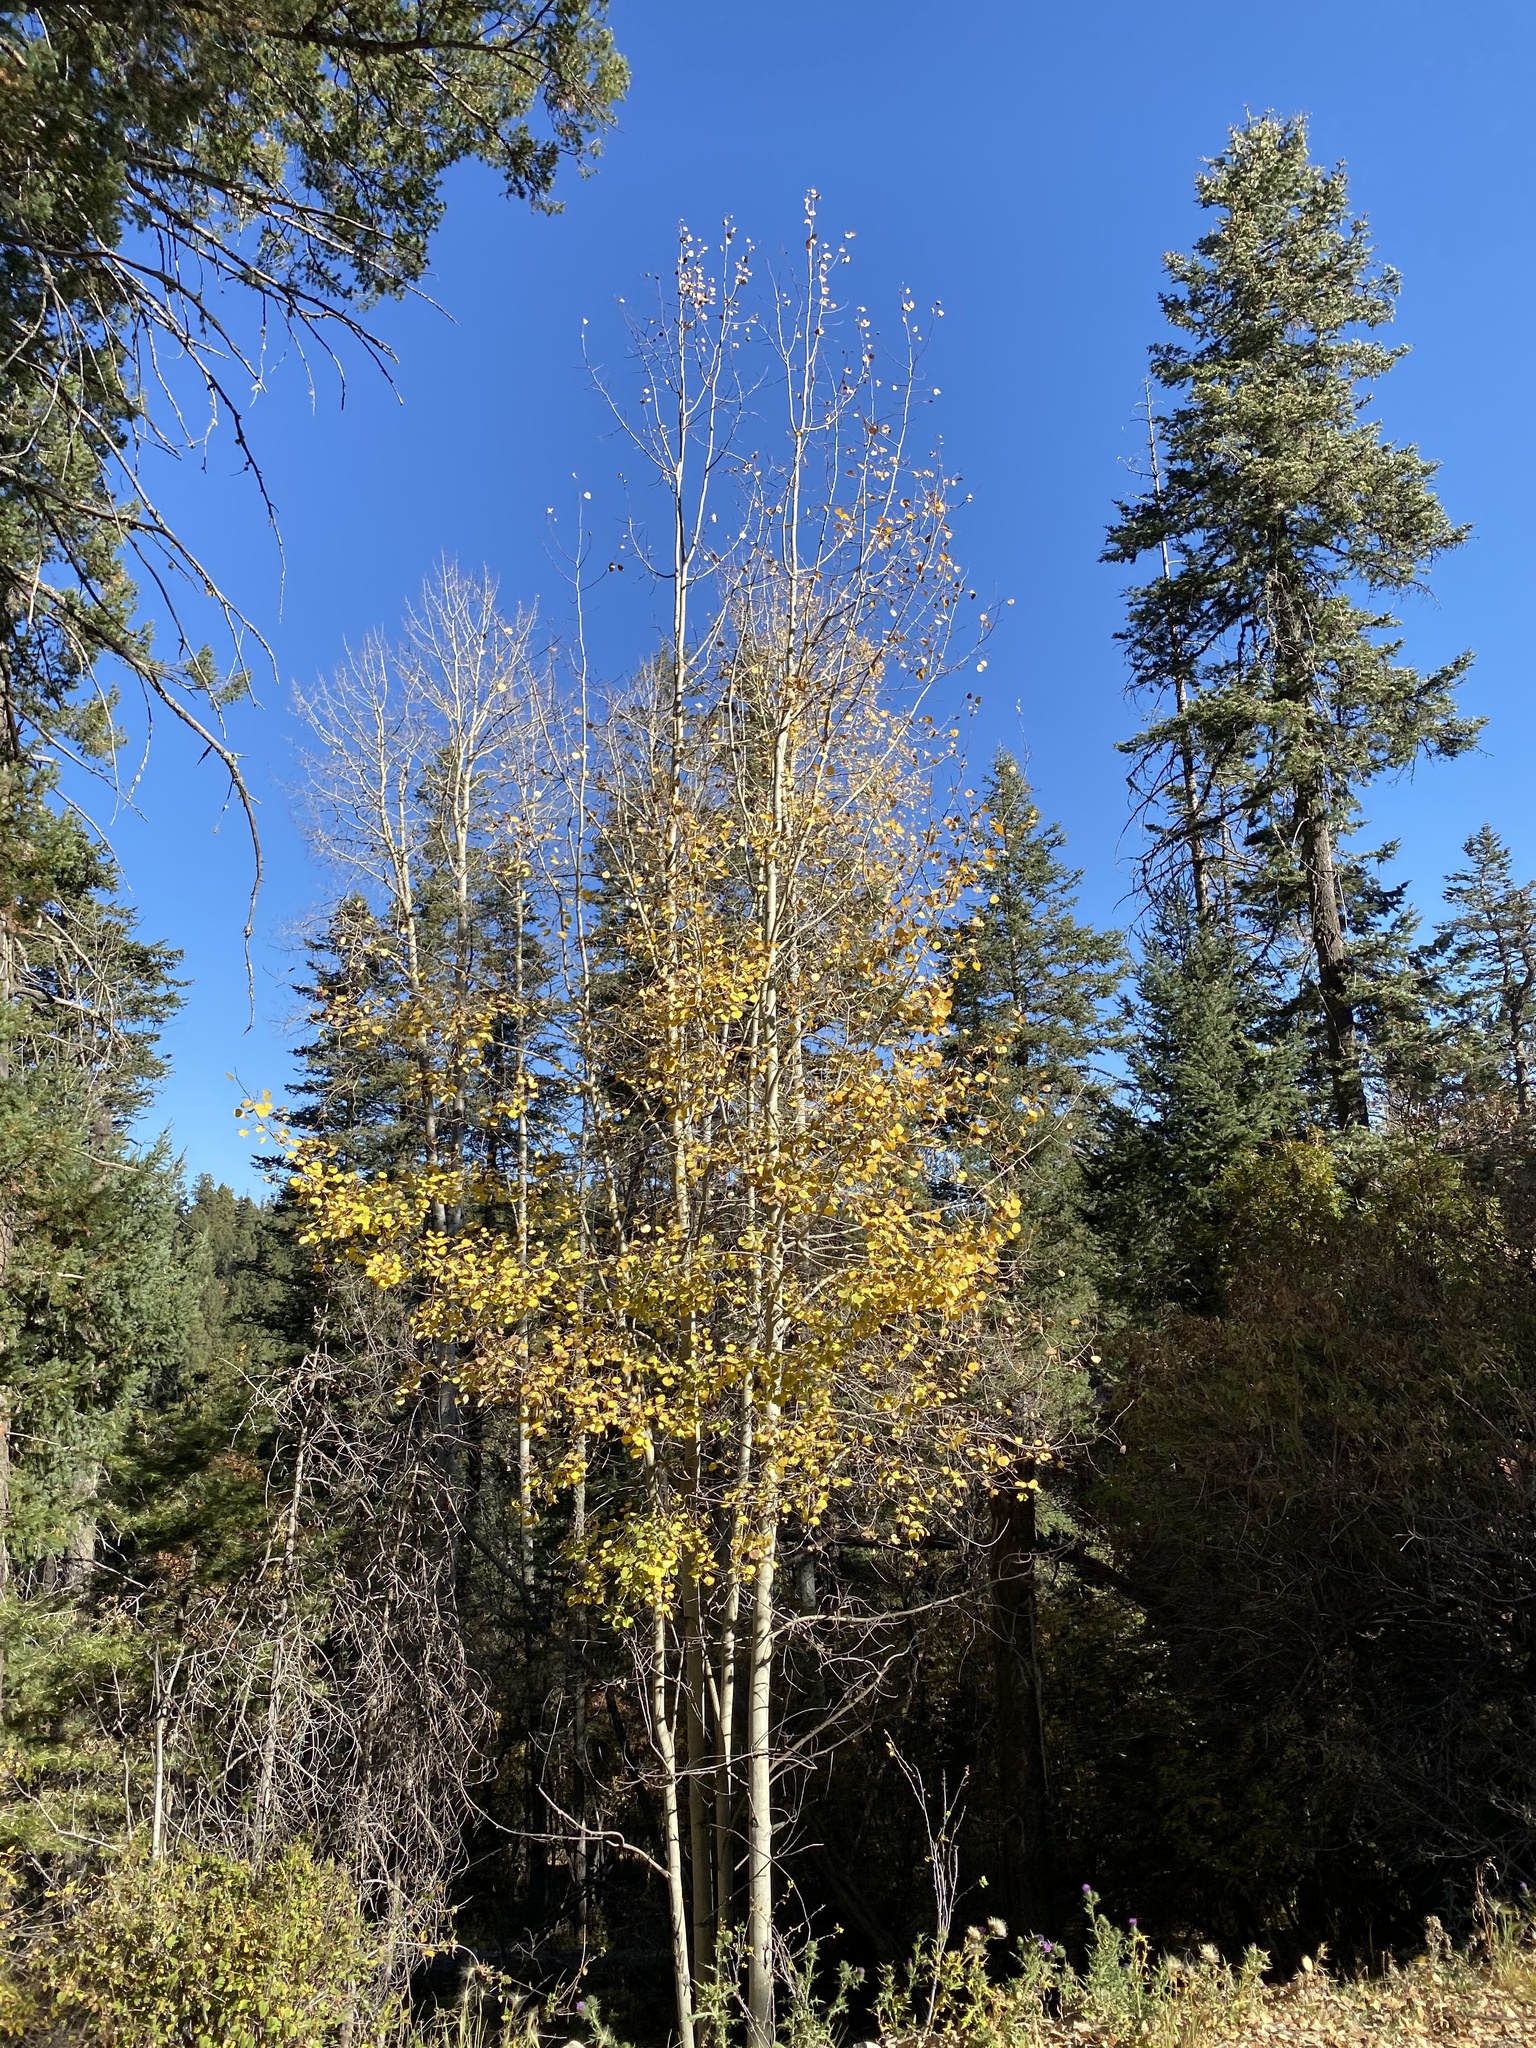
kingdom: Plantae
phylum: Tracheophyta
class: Magnoliopsida
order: Malpighiales
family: Salicaceae
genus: Populus
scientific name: Populus tremuloides
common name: Quaking aspen
